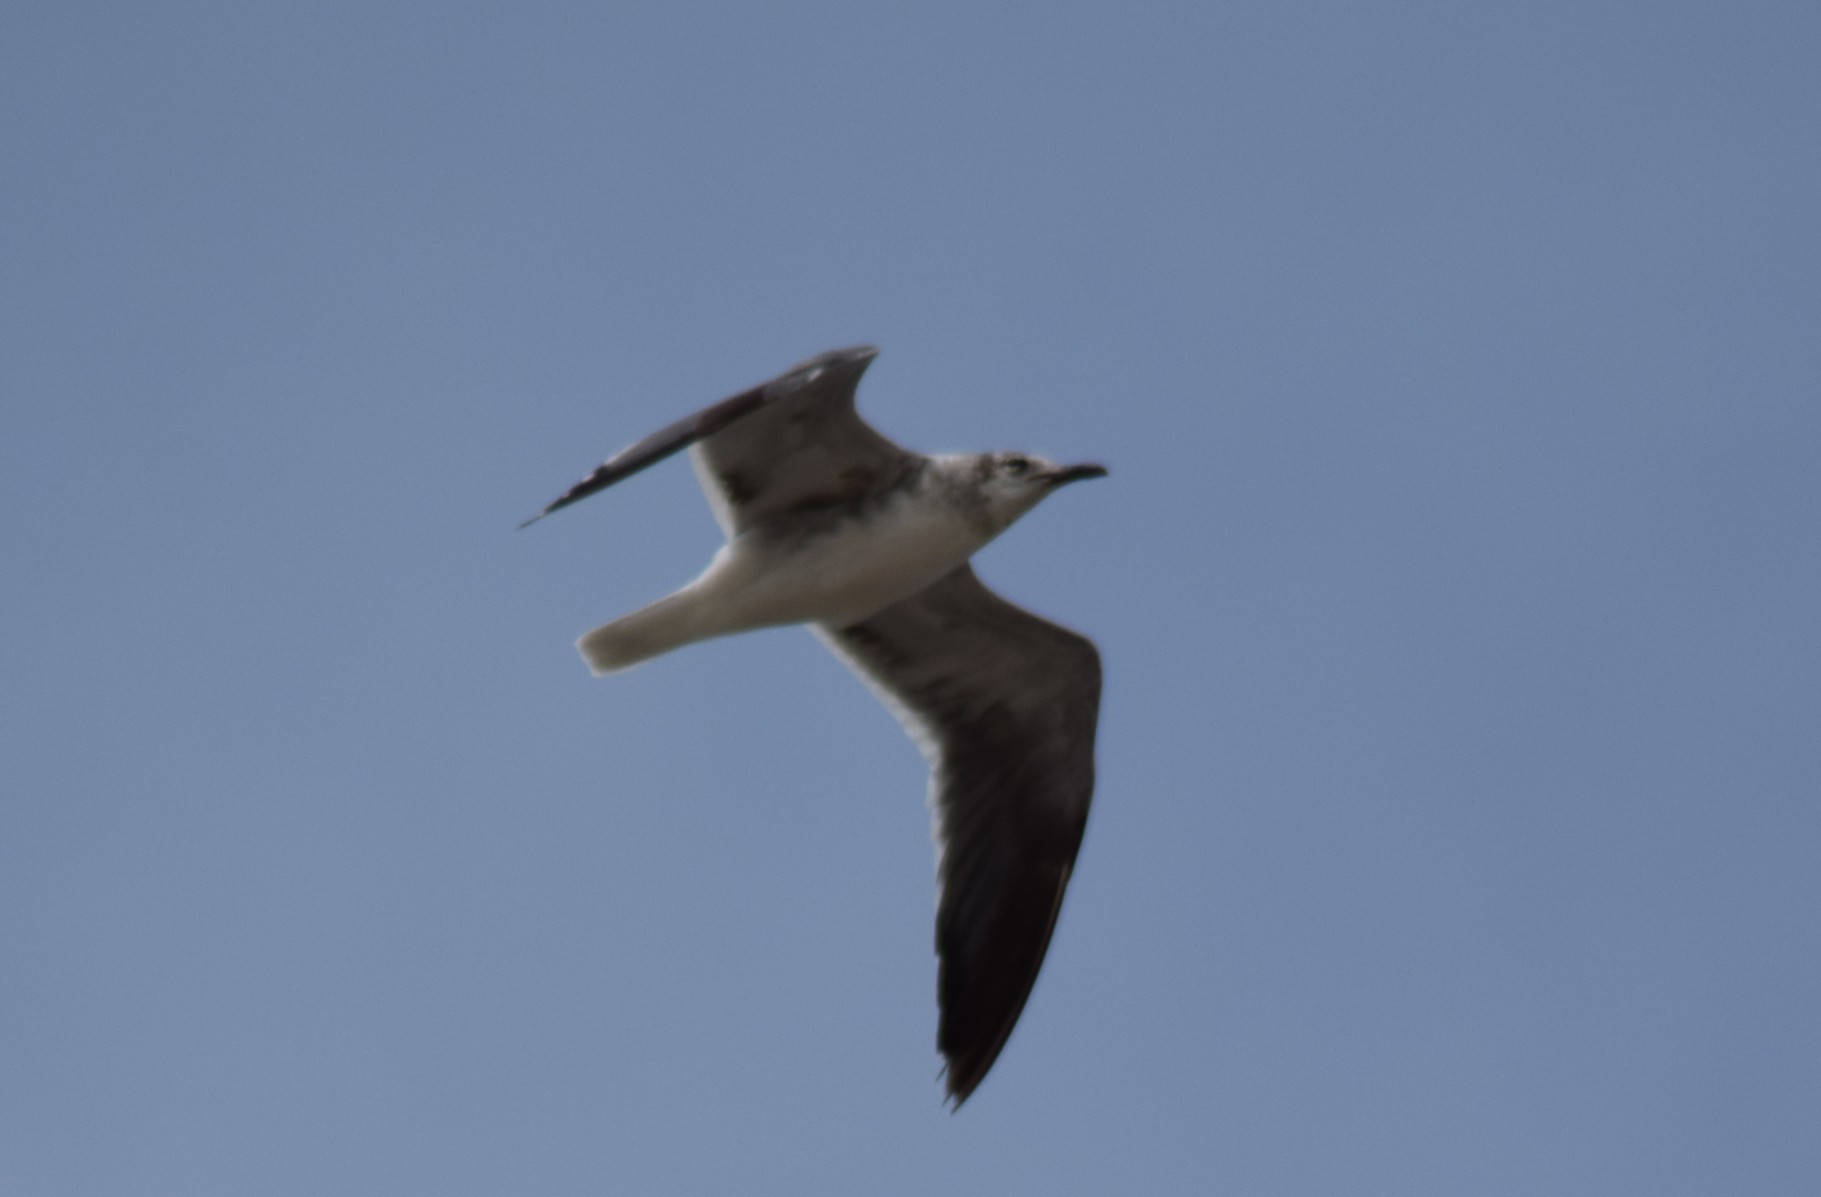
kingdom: Animalia
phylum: Chordata
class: Aves
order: Charadriiformes
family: Laridae
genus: Leucophaeus
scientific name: Leucophaeus atricilla
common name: Laughing gull
